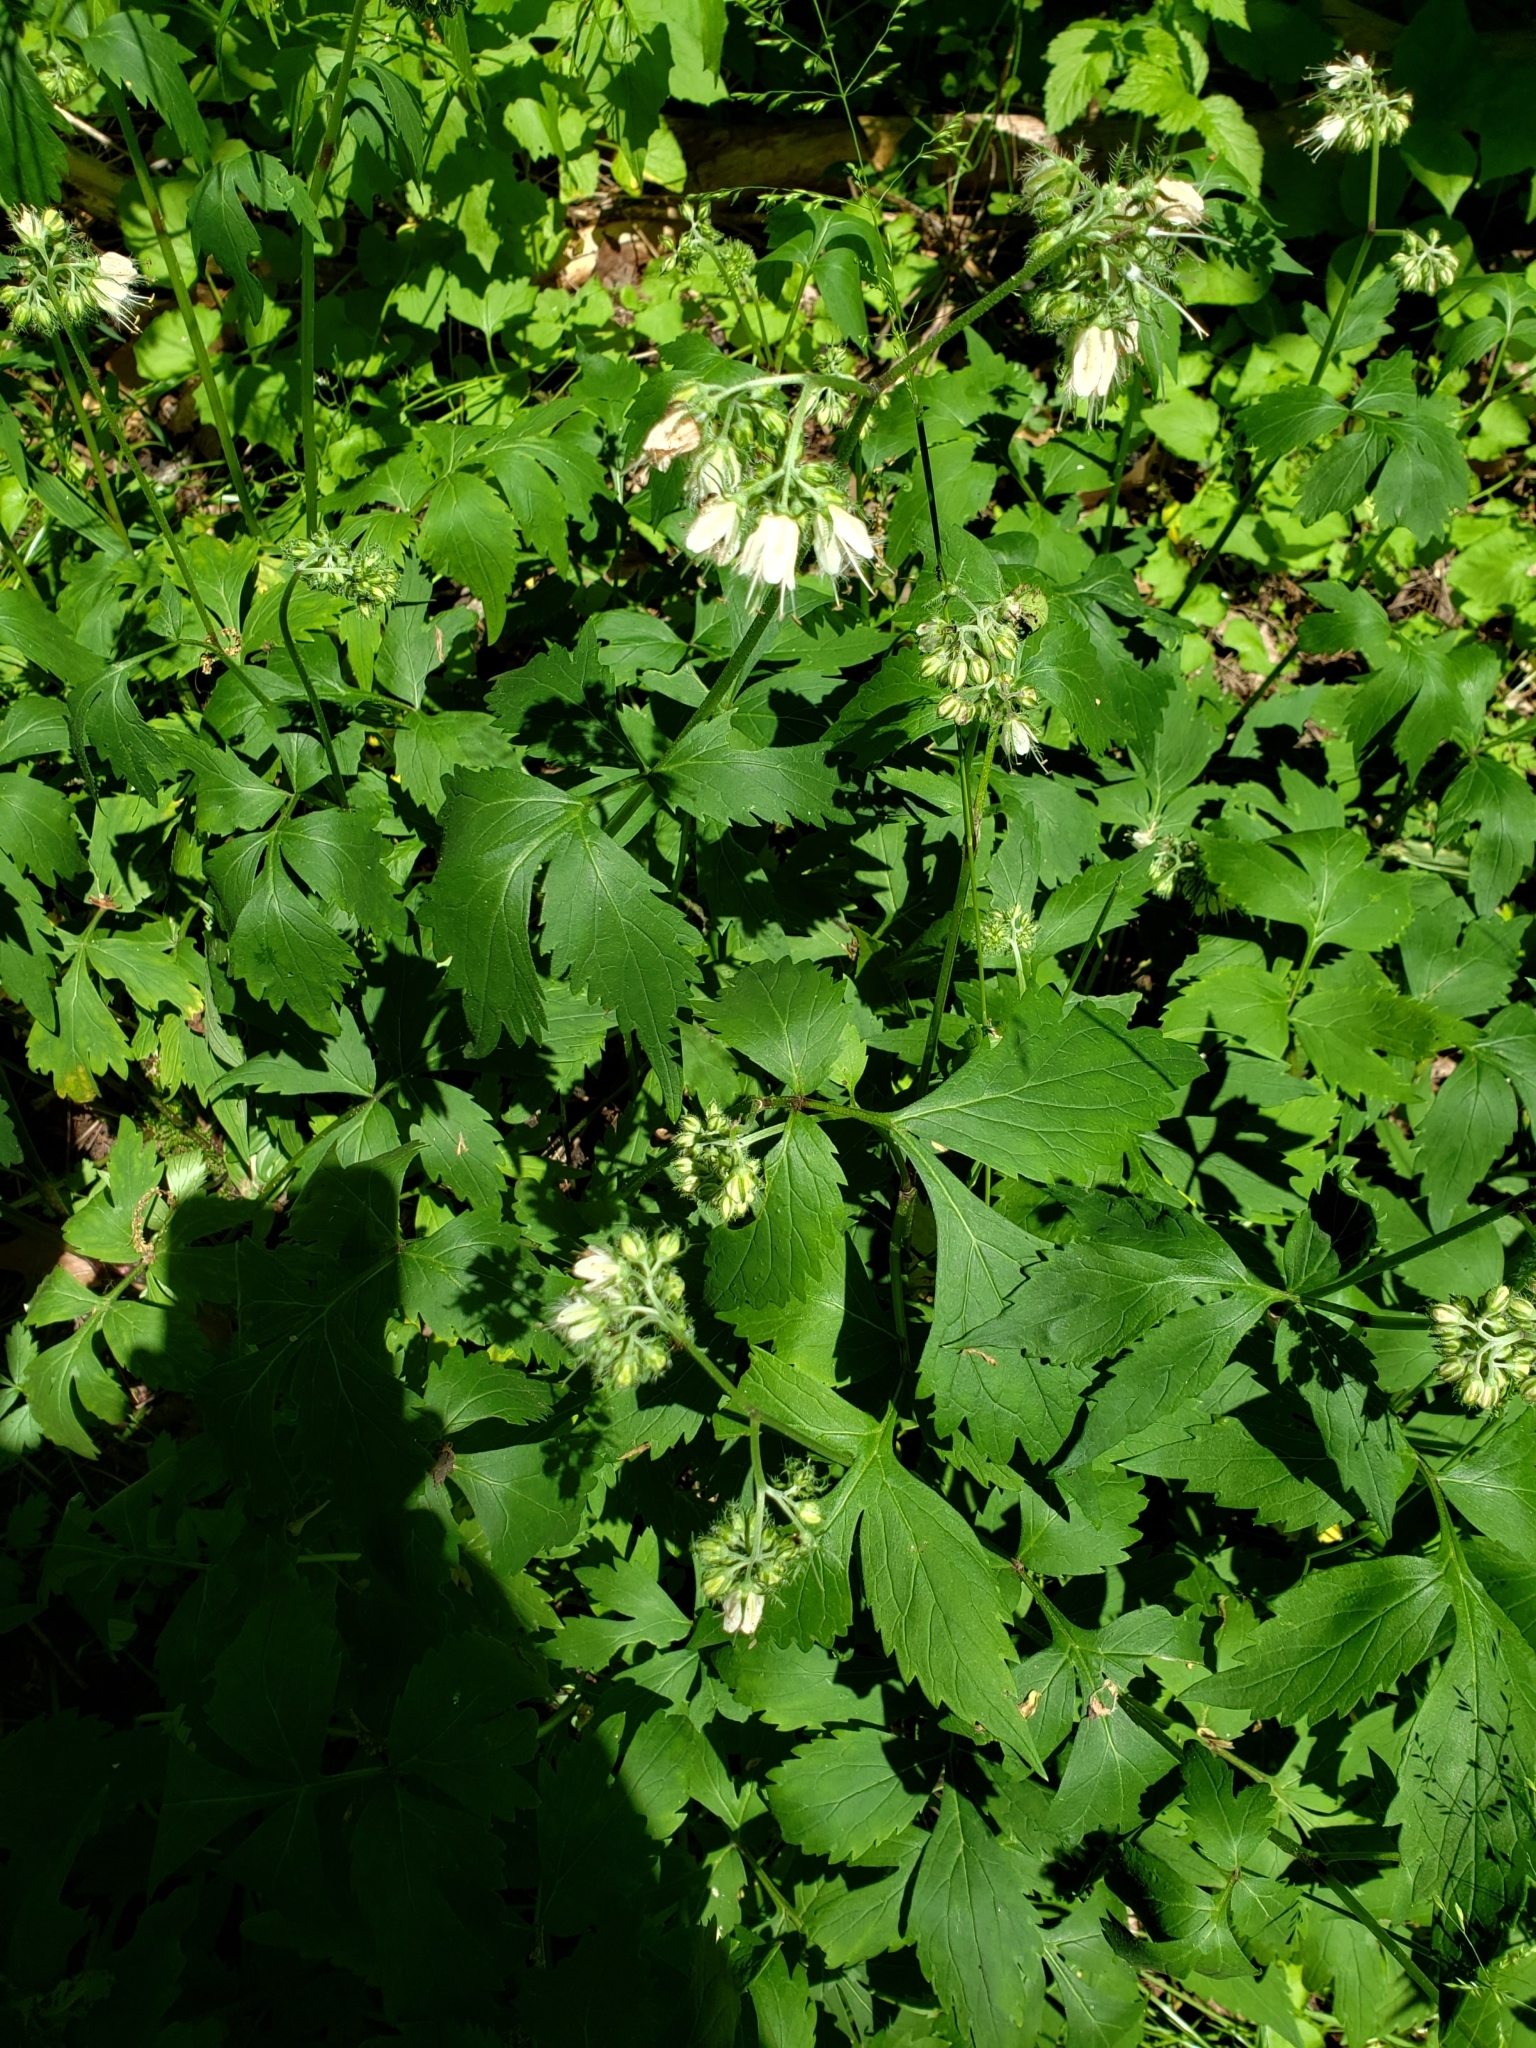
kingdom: Plantae
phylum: Tracheophyta
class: Magnoliopsida
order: Boraginales
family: Hydrophyllaceae
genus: Hydrophyllum
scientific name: Hydrophyllum virginianum
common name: Virginia waterleaf
